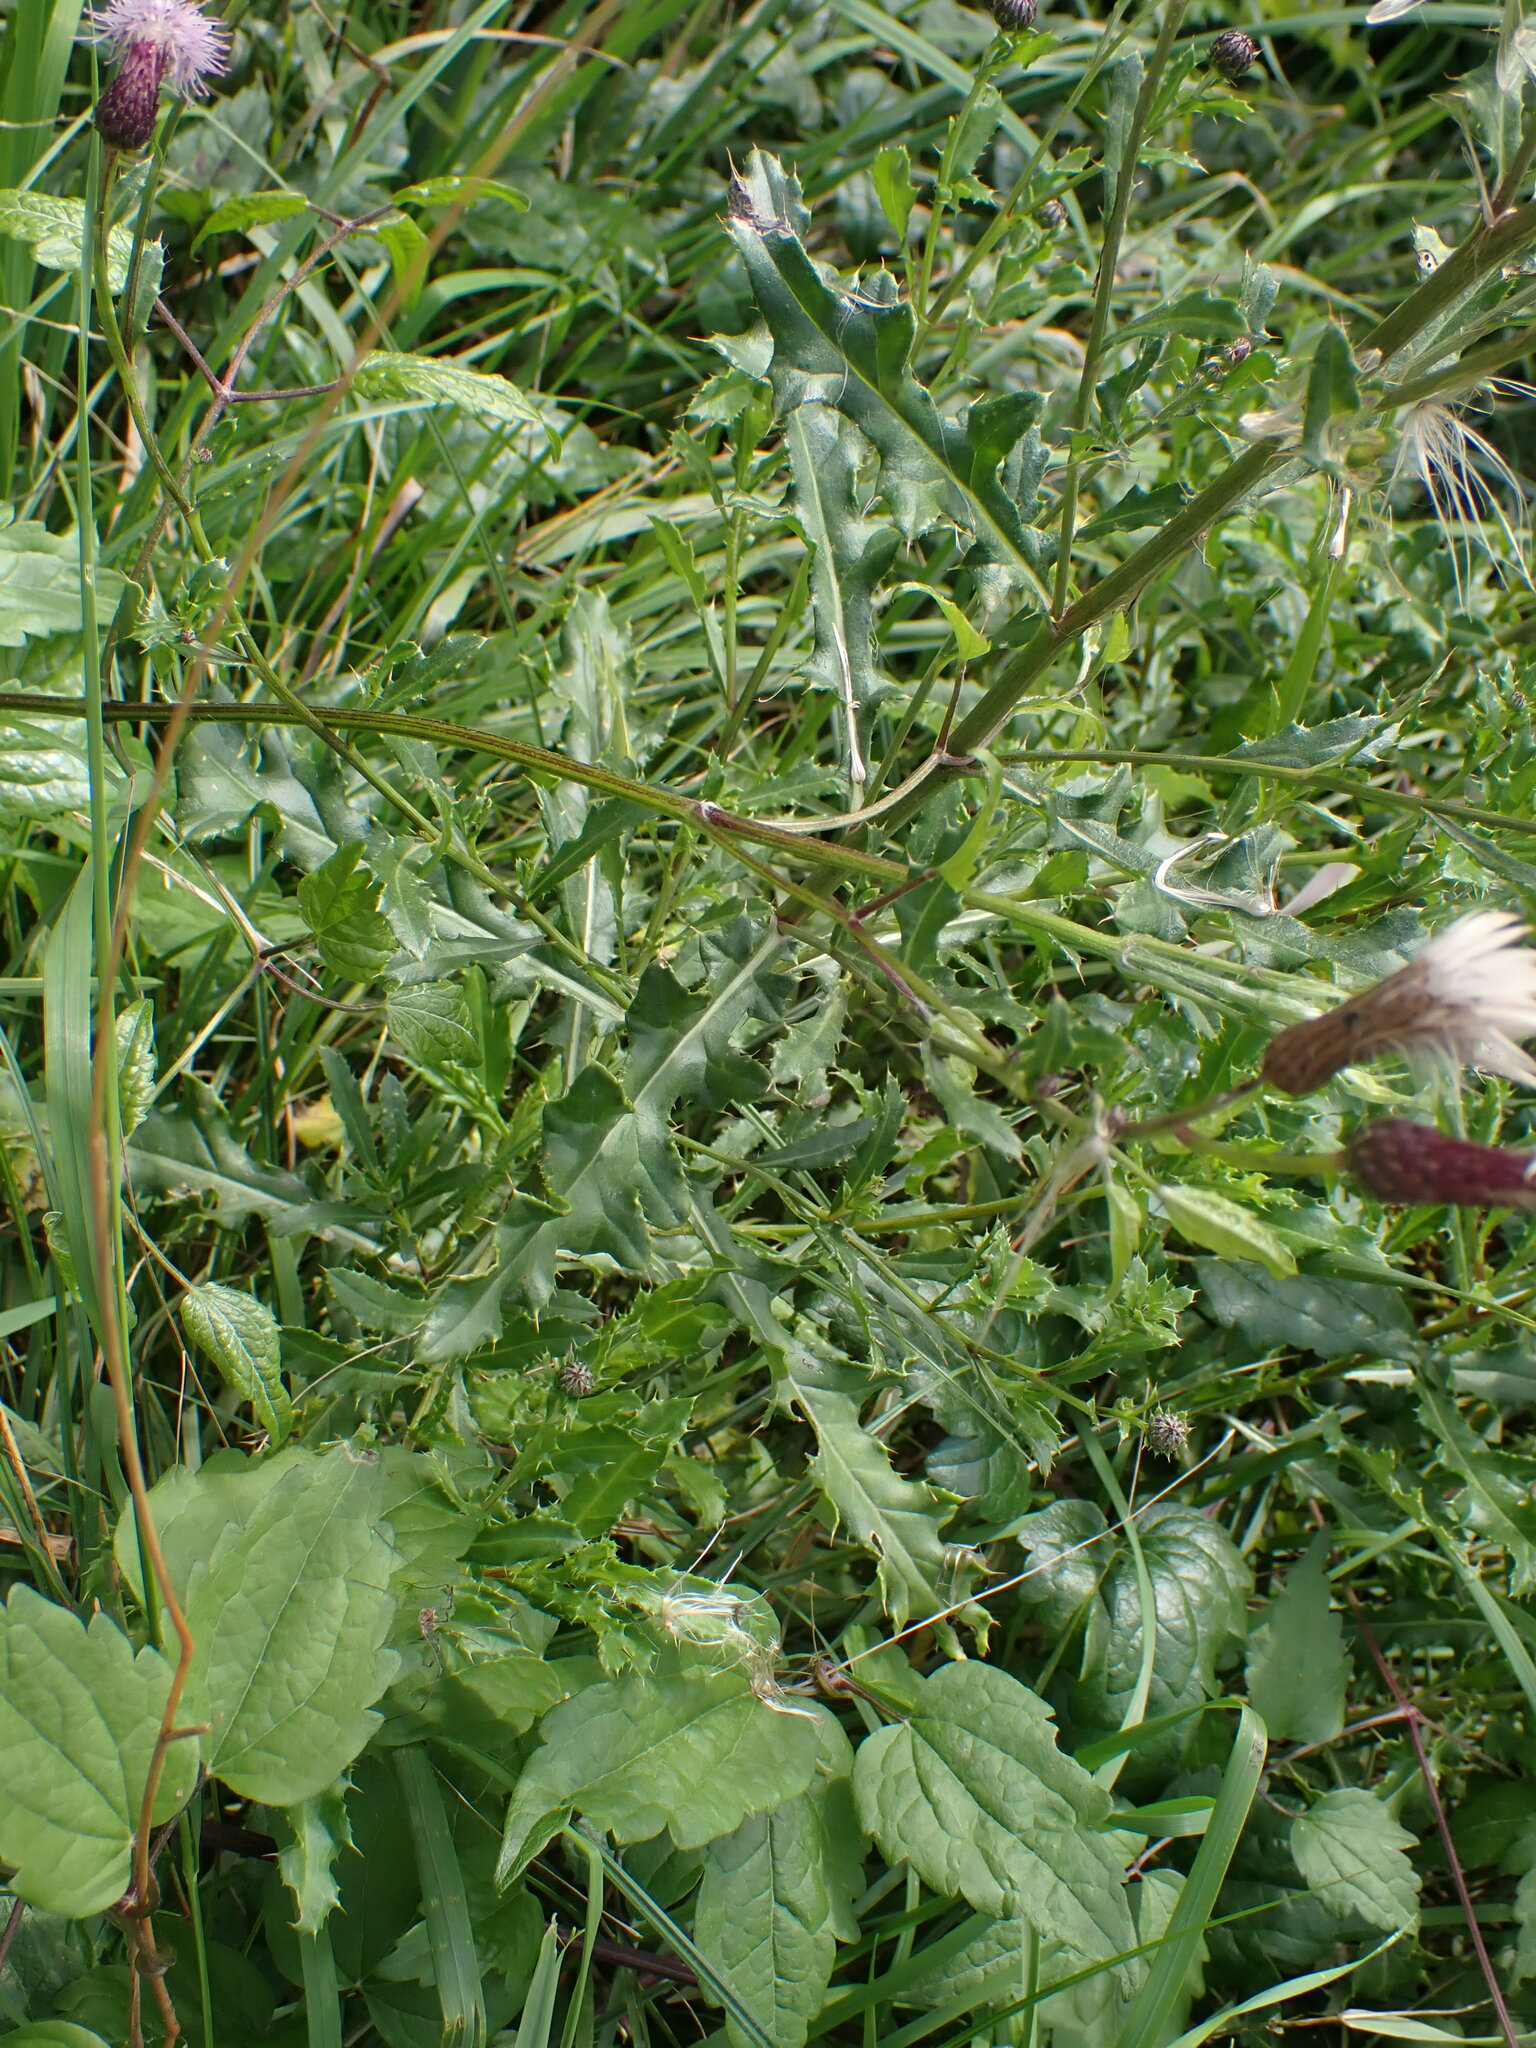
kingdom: Plantae
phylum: Tracheophyta
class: Magnoliopsida
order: Asterales
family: Asteraceae
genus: Cirsium
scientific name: Cirsium arvense
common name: Creeping thistle
